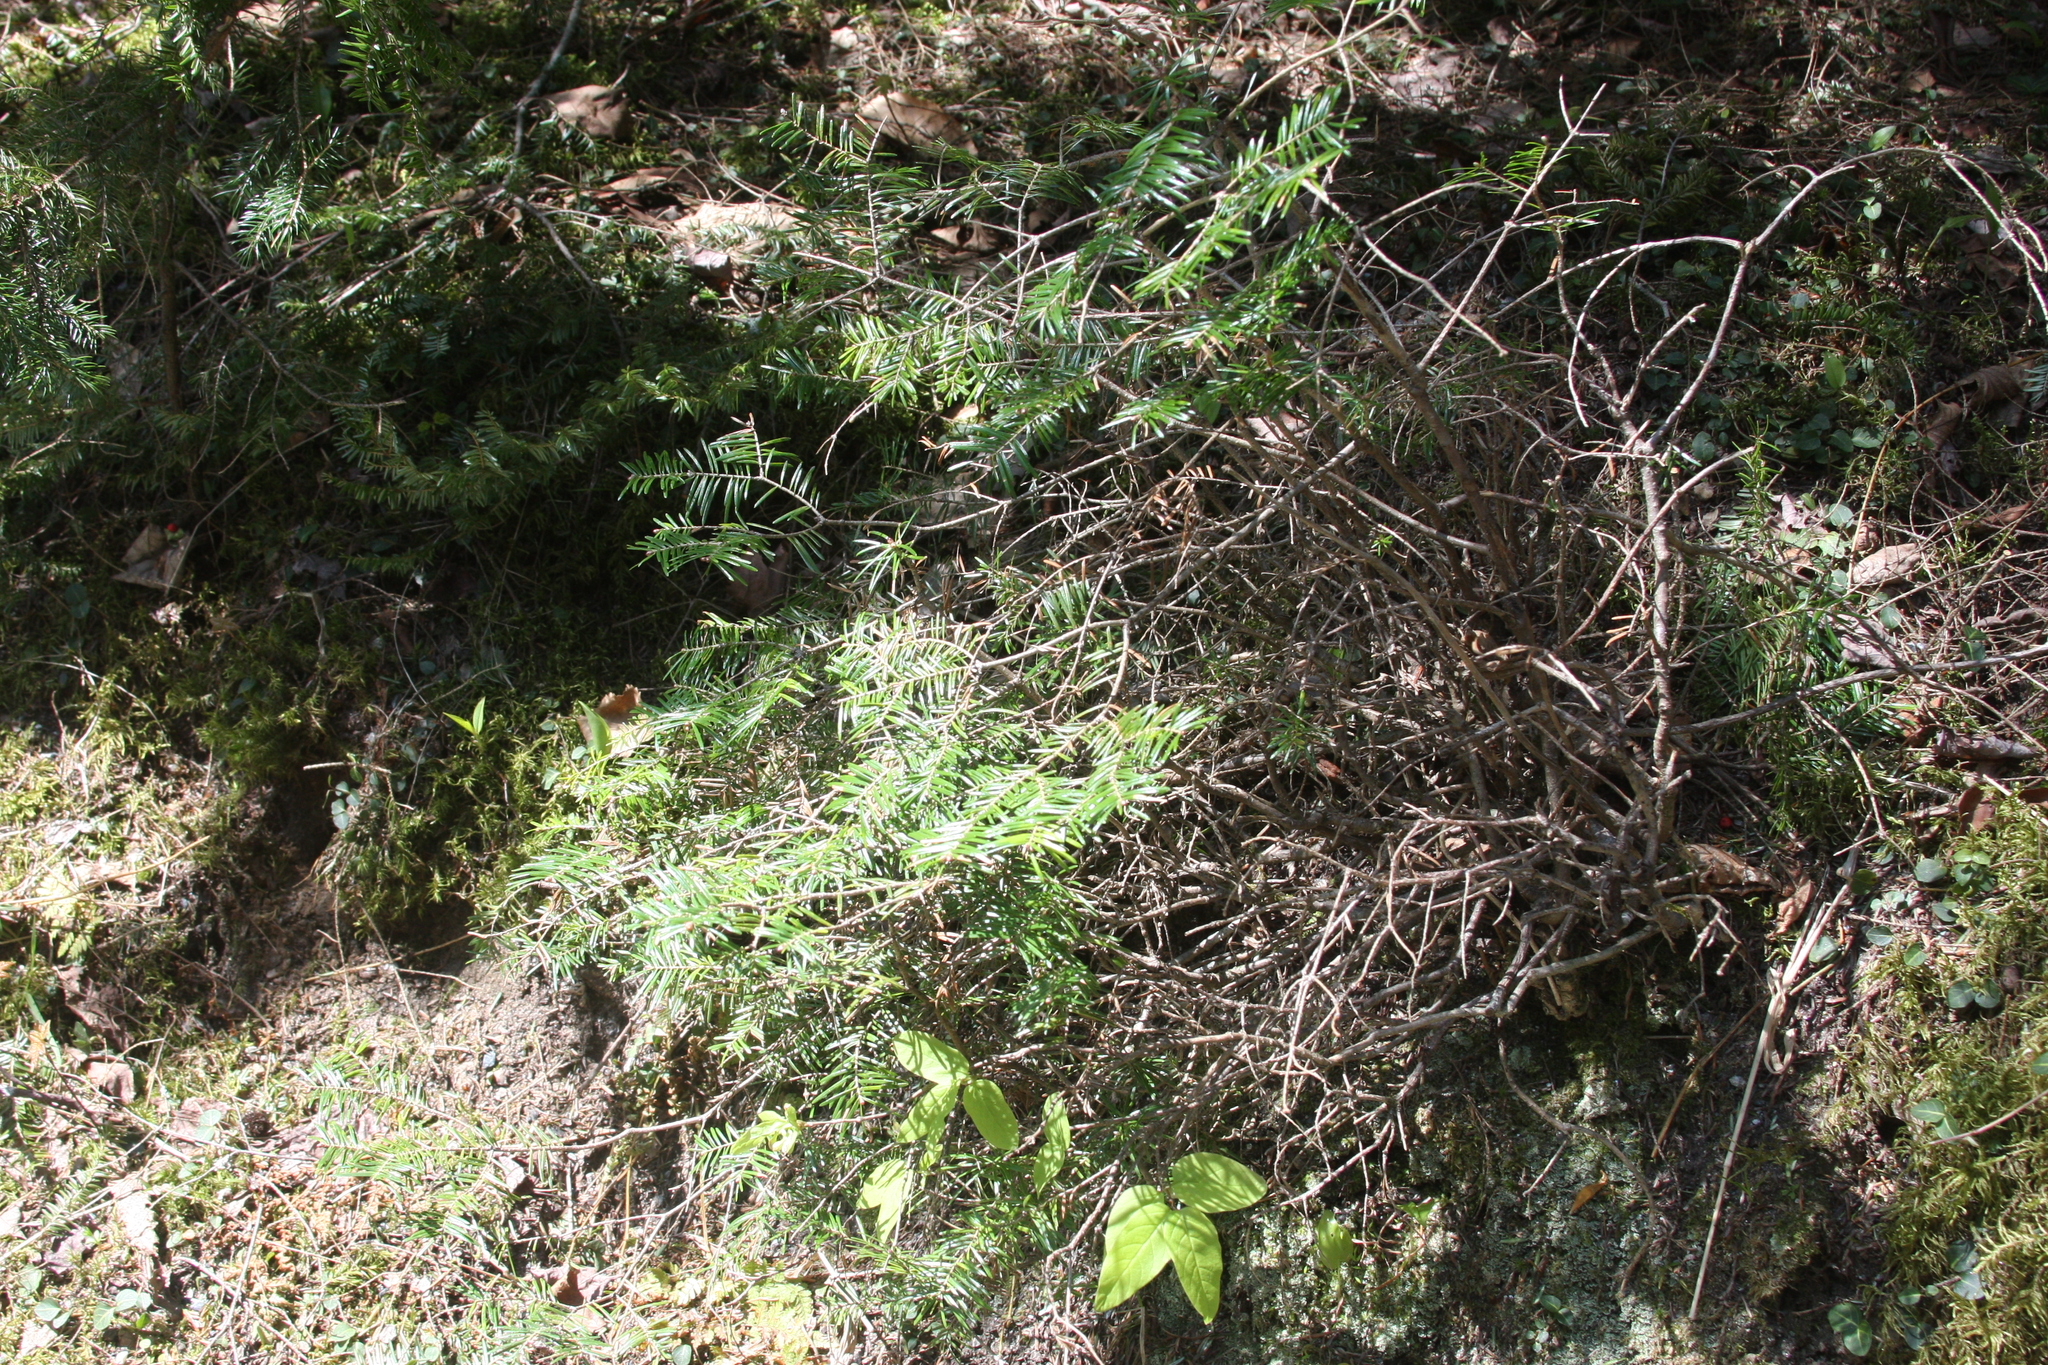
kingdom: Plantae
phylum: Tracheophyta
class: Pinopsida
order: Pinales
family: Pinaceae
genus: Abies
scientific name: Abies balsamea
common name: Balsam fir
